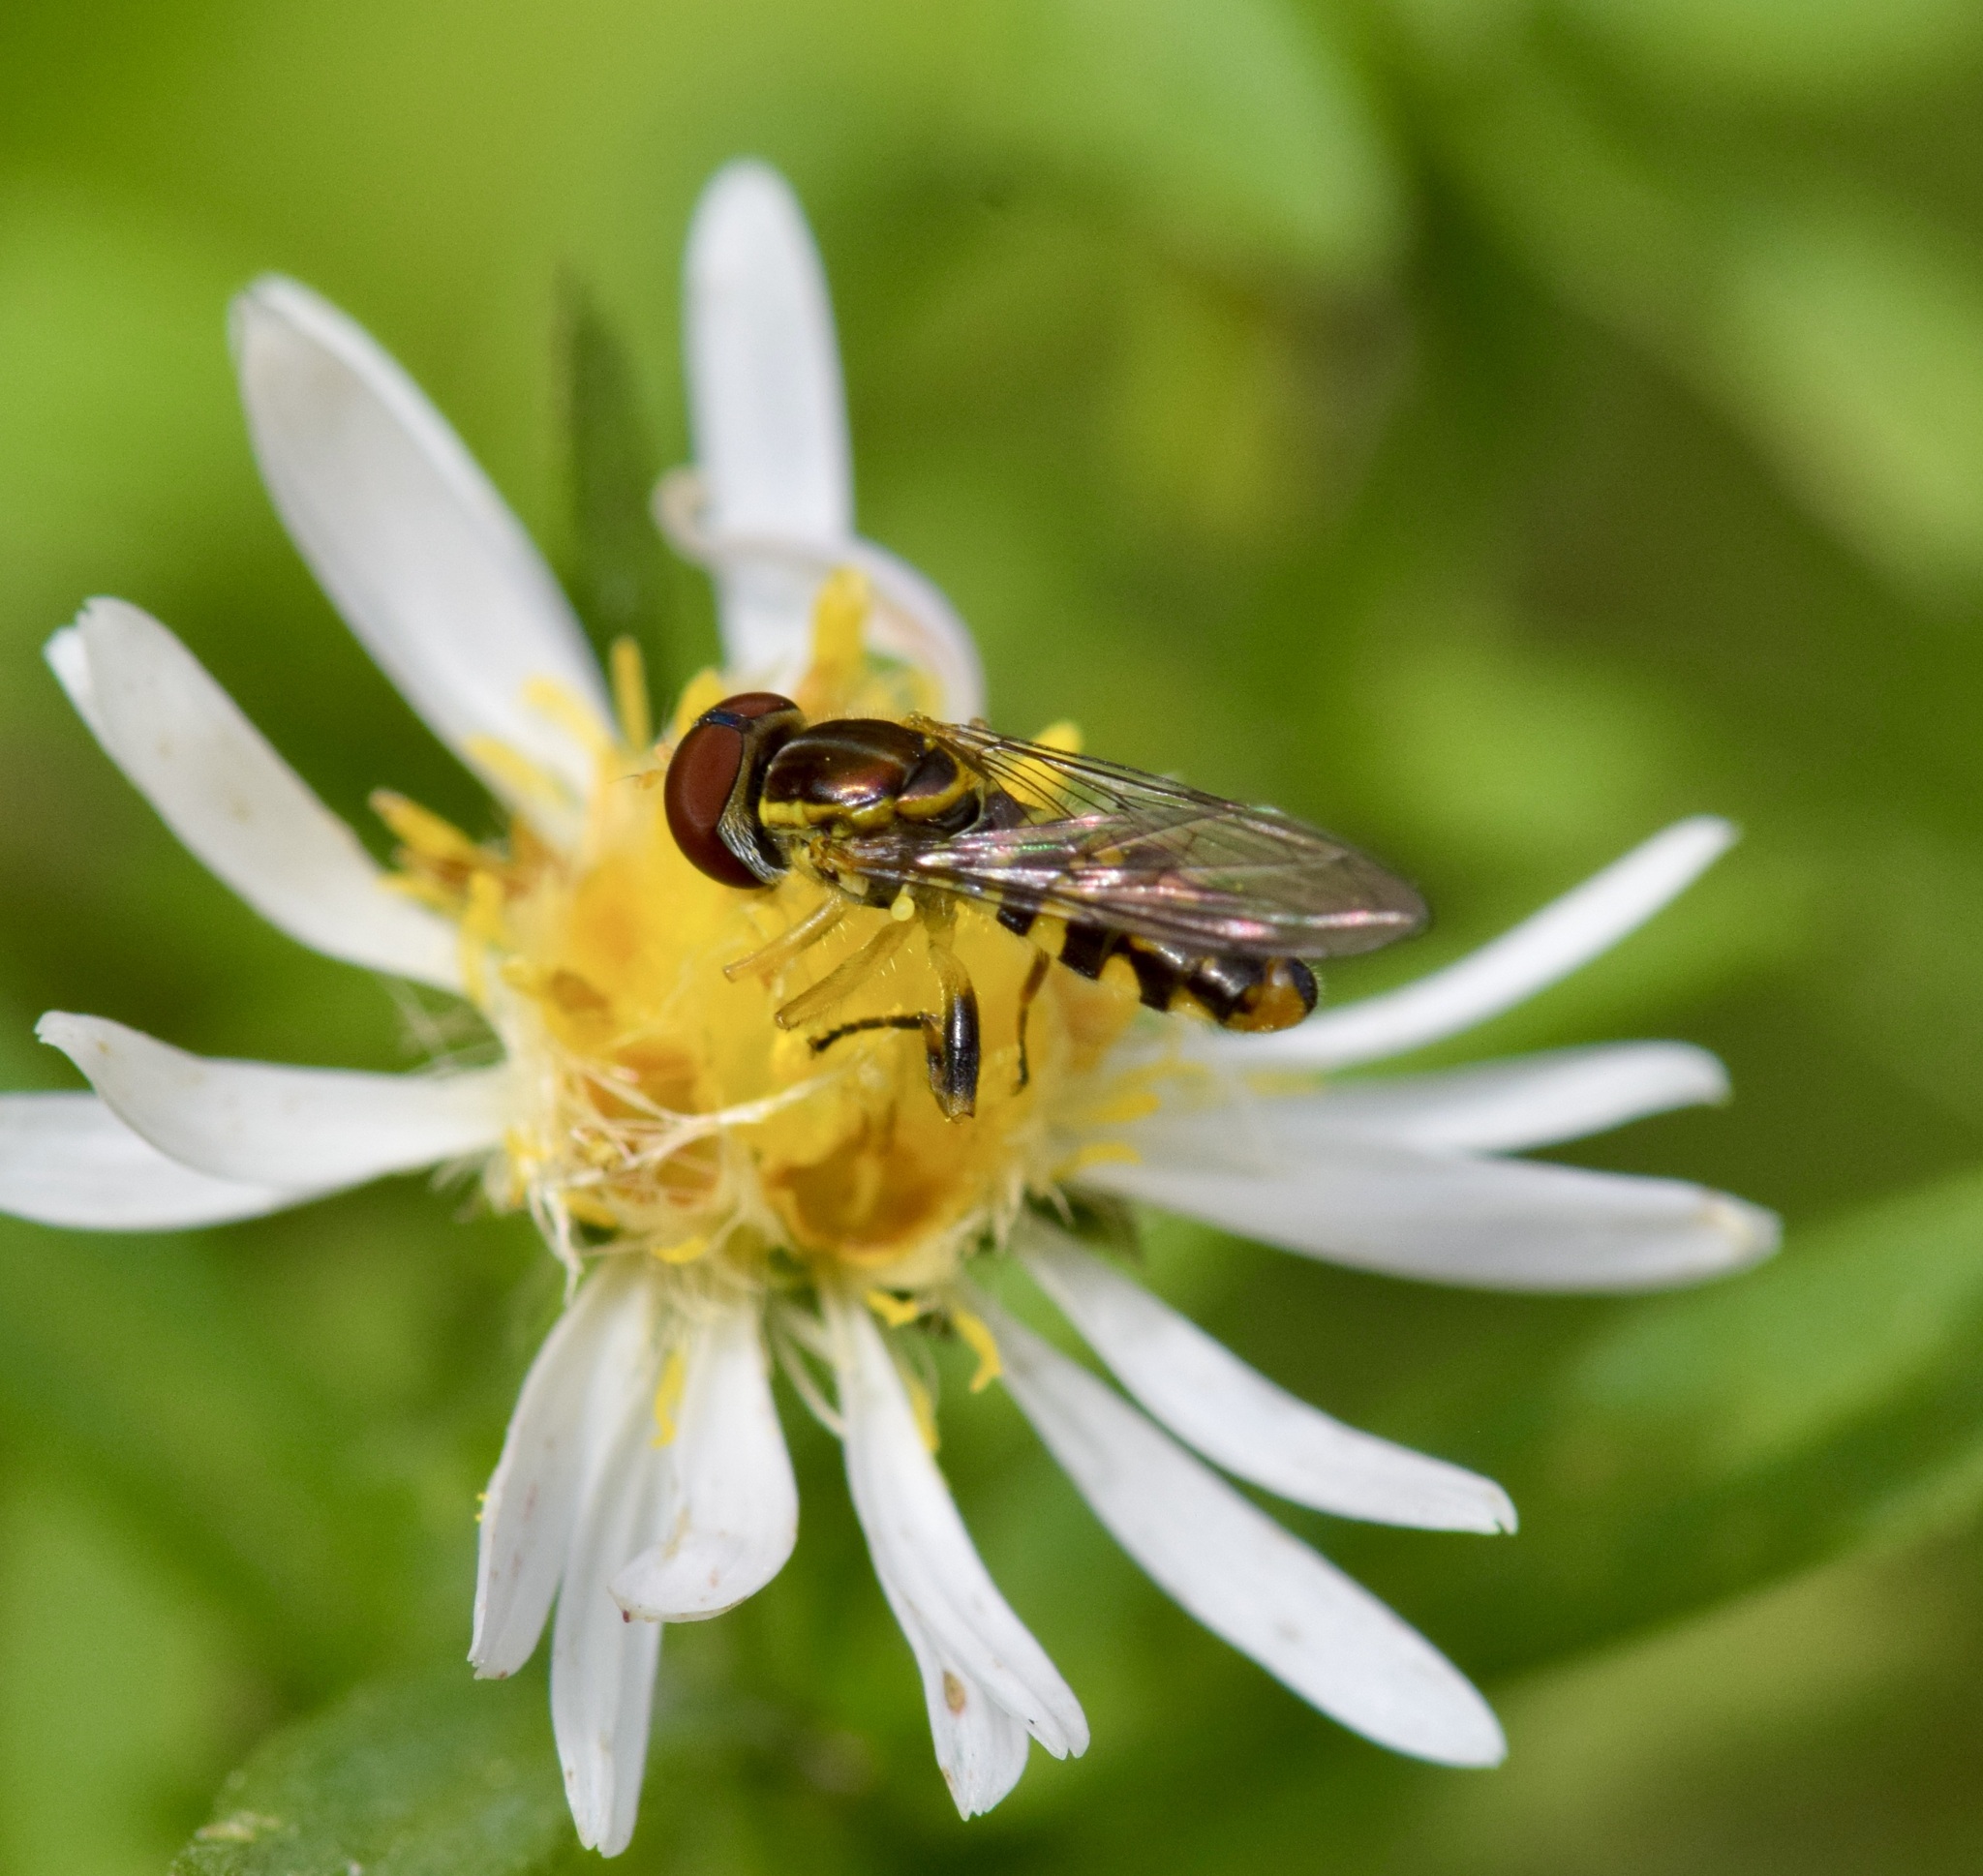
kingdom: Animalia
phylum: Arthropoda
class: Insecta
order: Diptera
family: Syrphidae
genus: Toxomerus
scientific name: Toxomerus geminatus
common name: Eastern calligrapher
